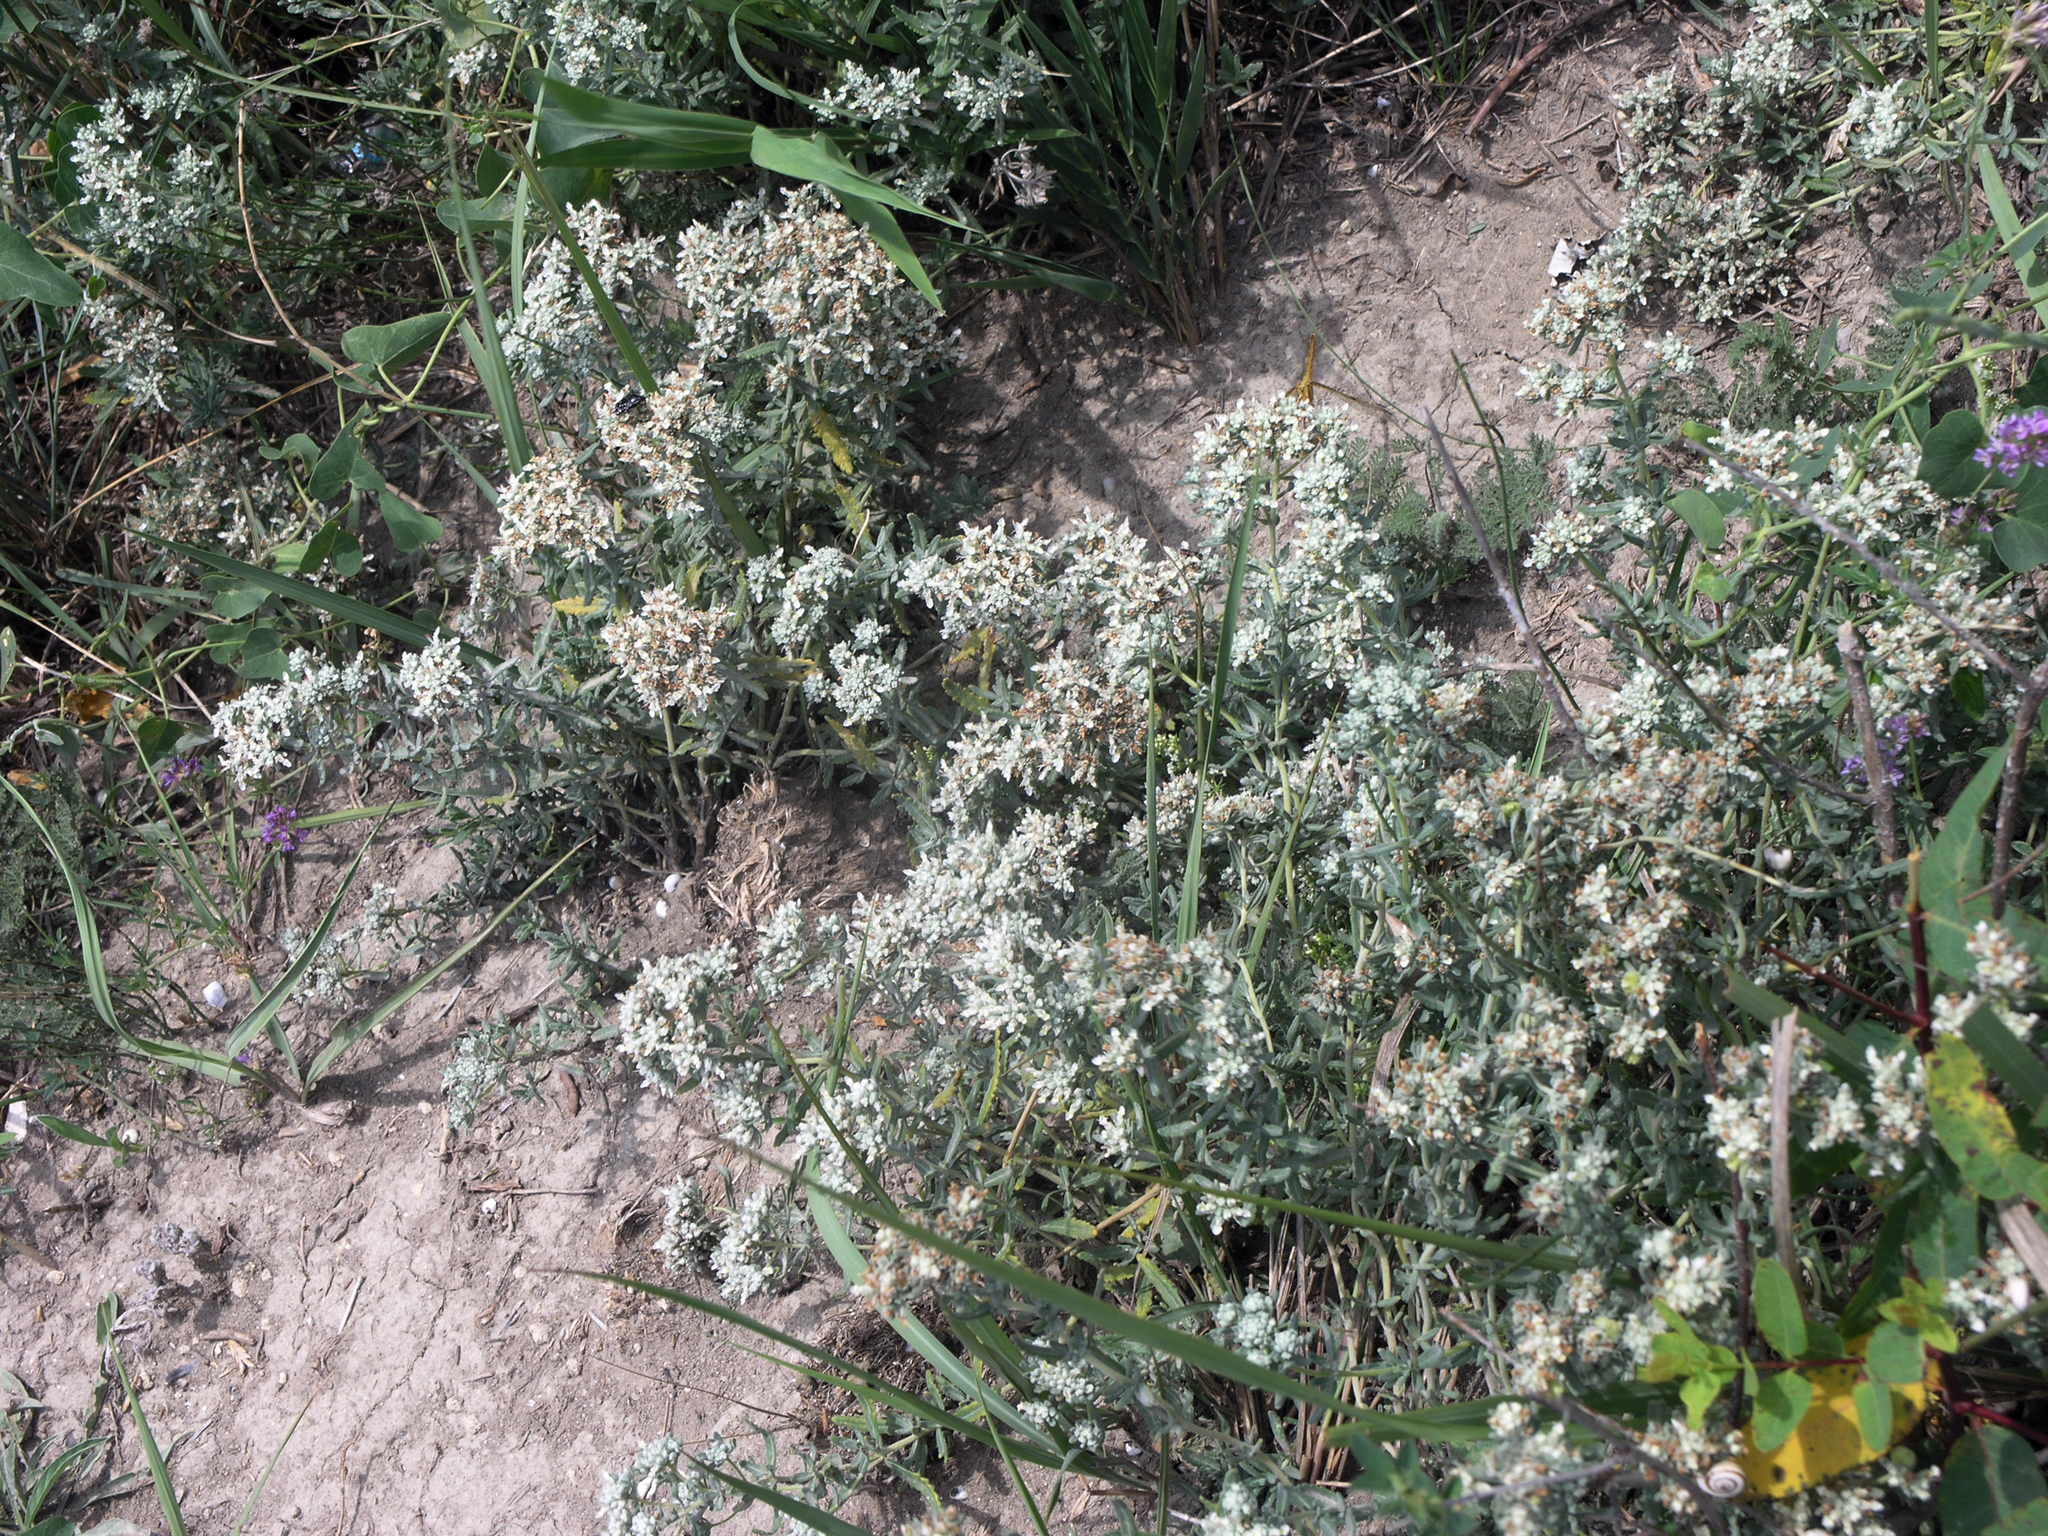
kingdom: Plantae
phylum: Tracheophyta
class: Magnoliopsida
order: Lamiales
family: Lamiaceae
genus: Teucrium
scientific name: Teucrium polium
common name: Poley
